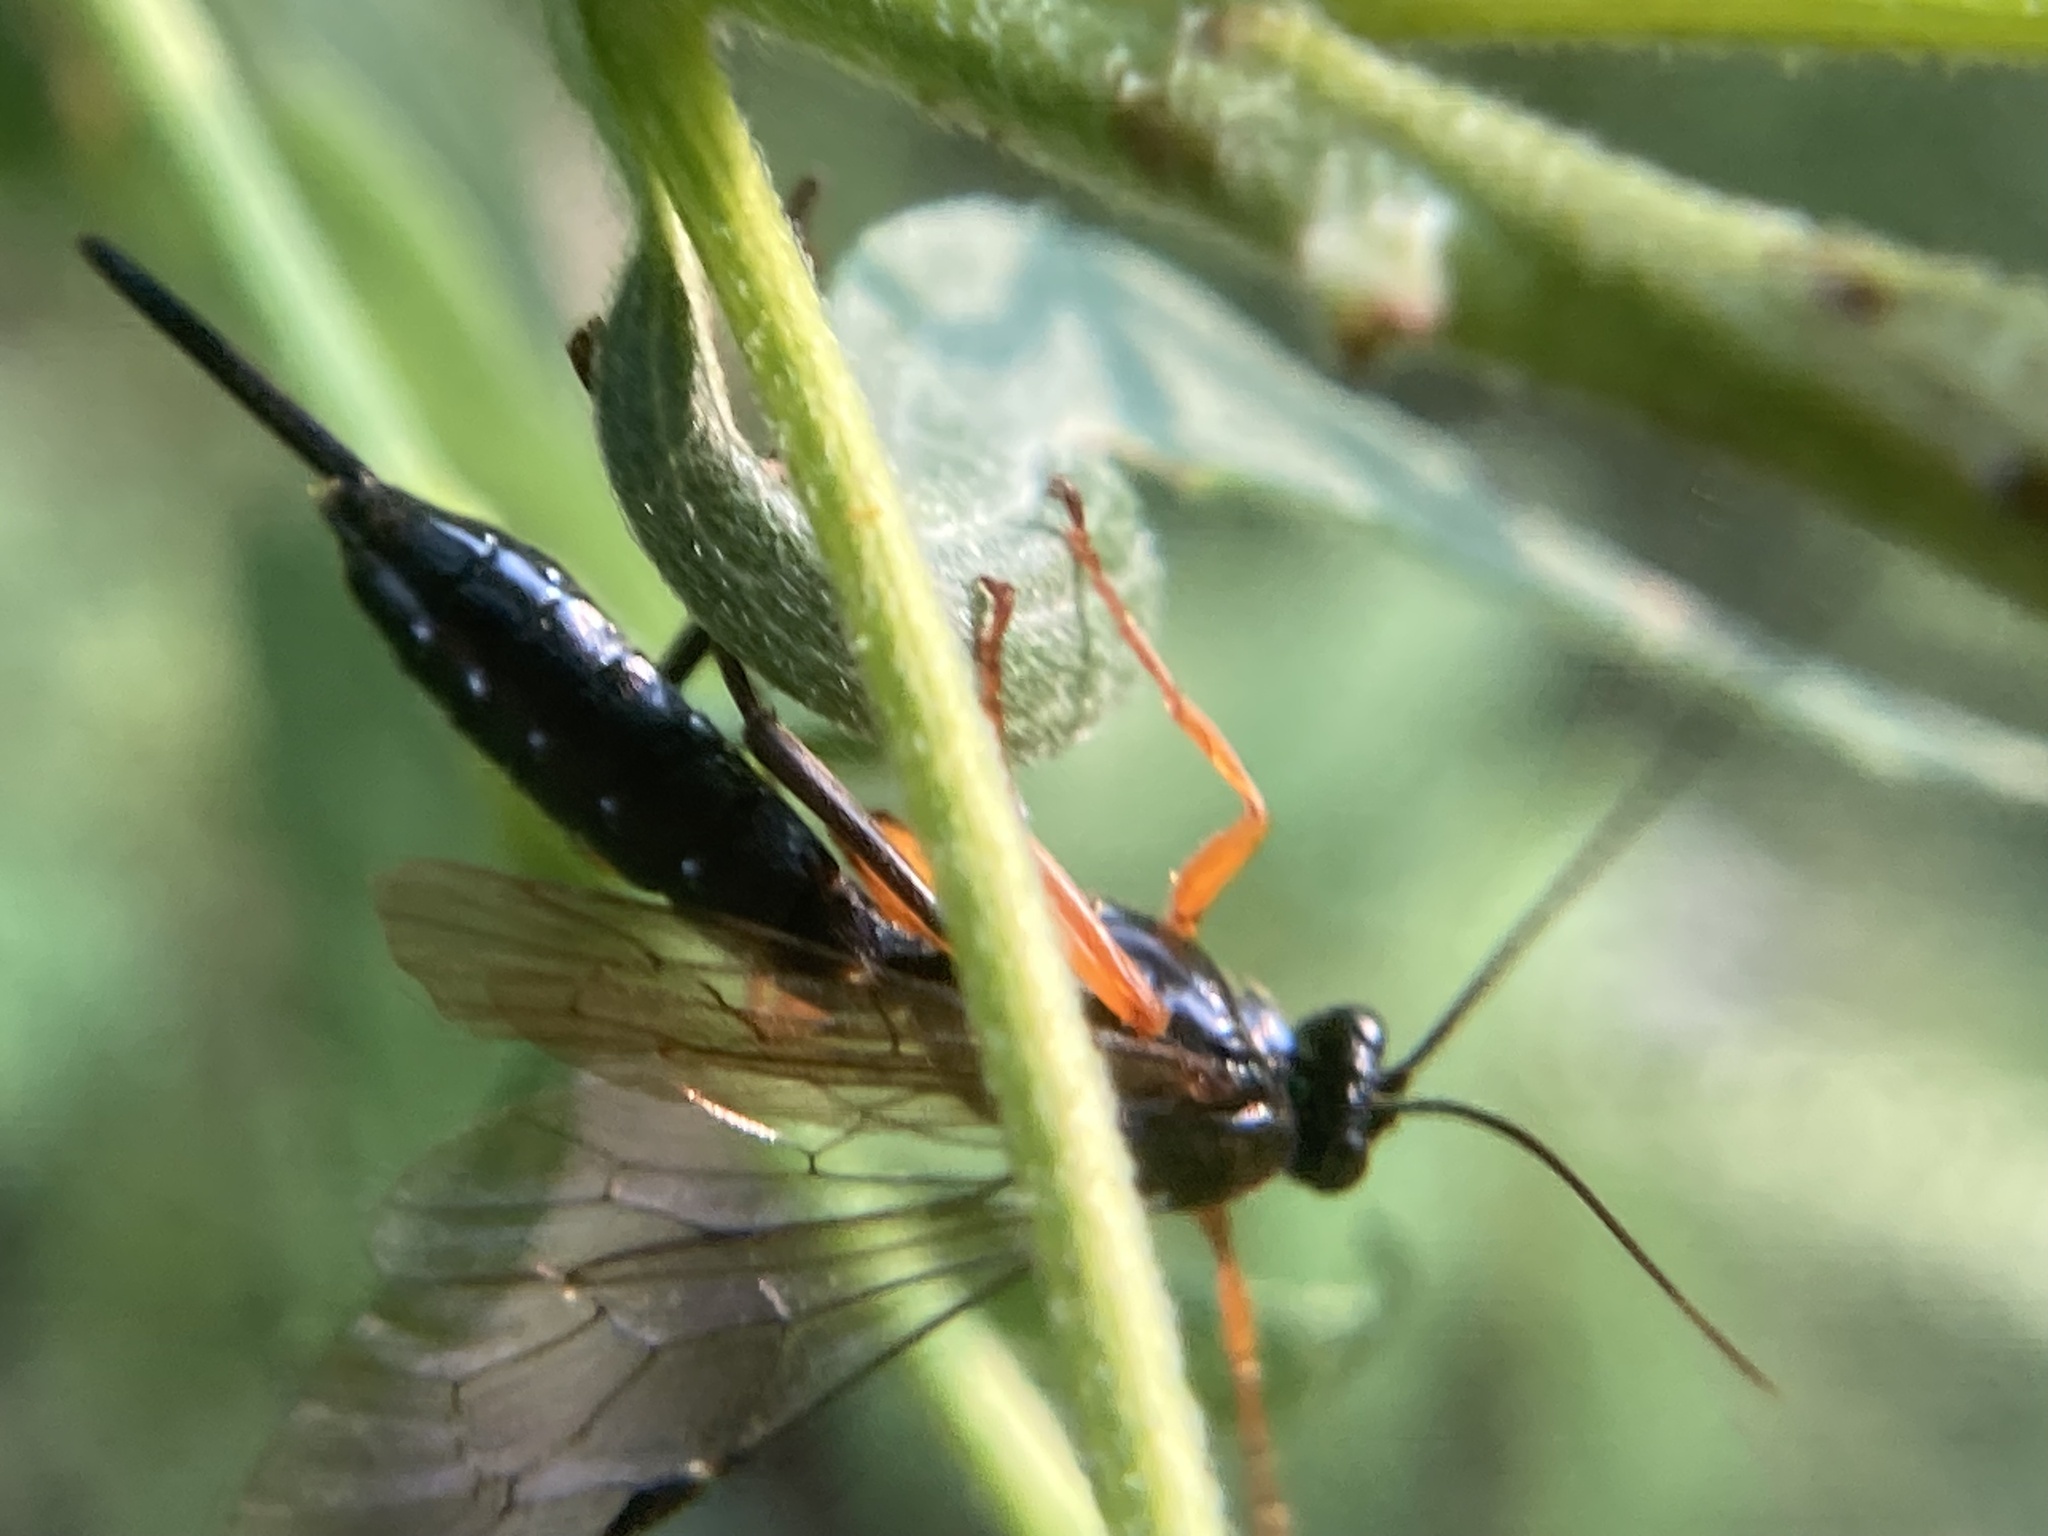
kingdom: Animalia
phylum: Arthropoda
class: Insecta
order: Hymenoptera
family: Ichneumonidae
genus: Pimpla
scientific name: Pimpla pedalis
